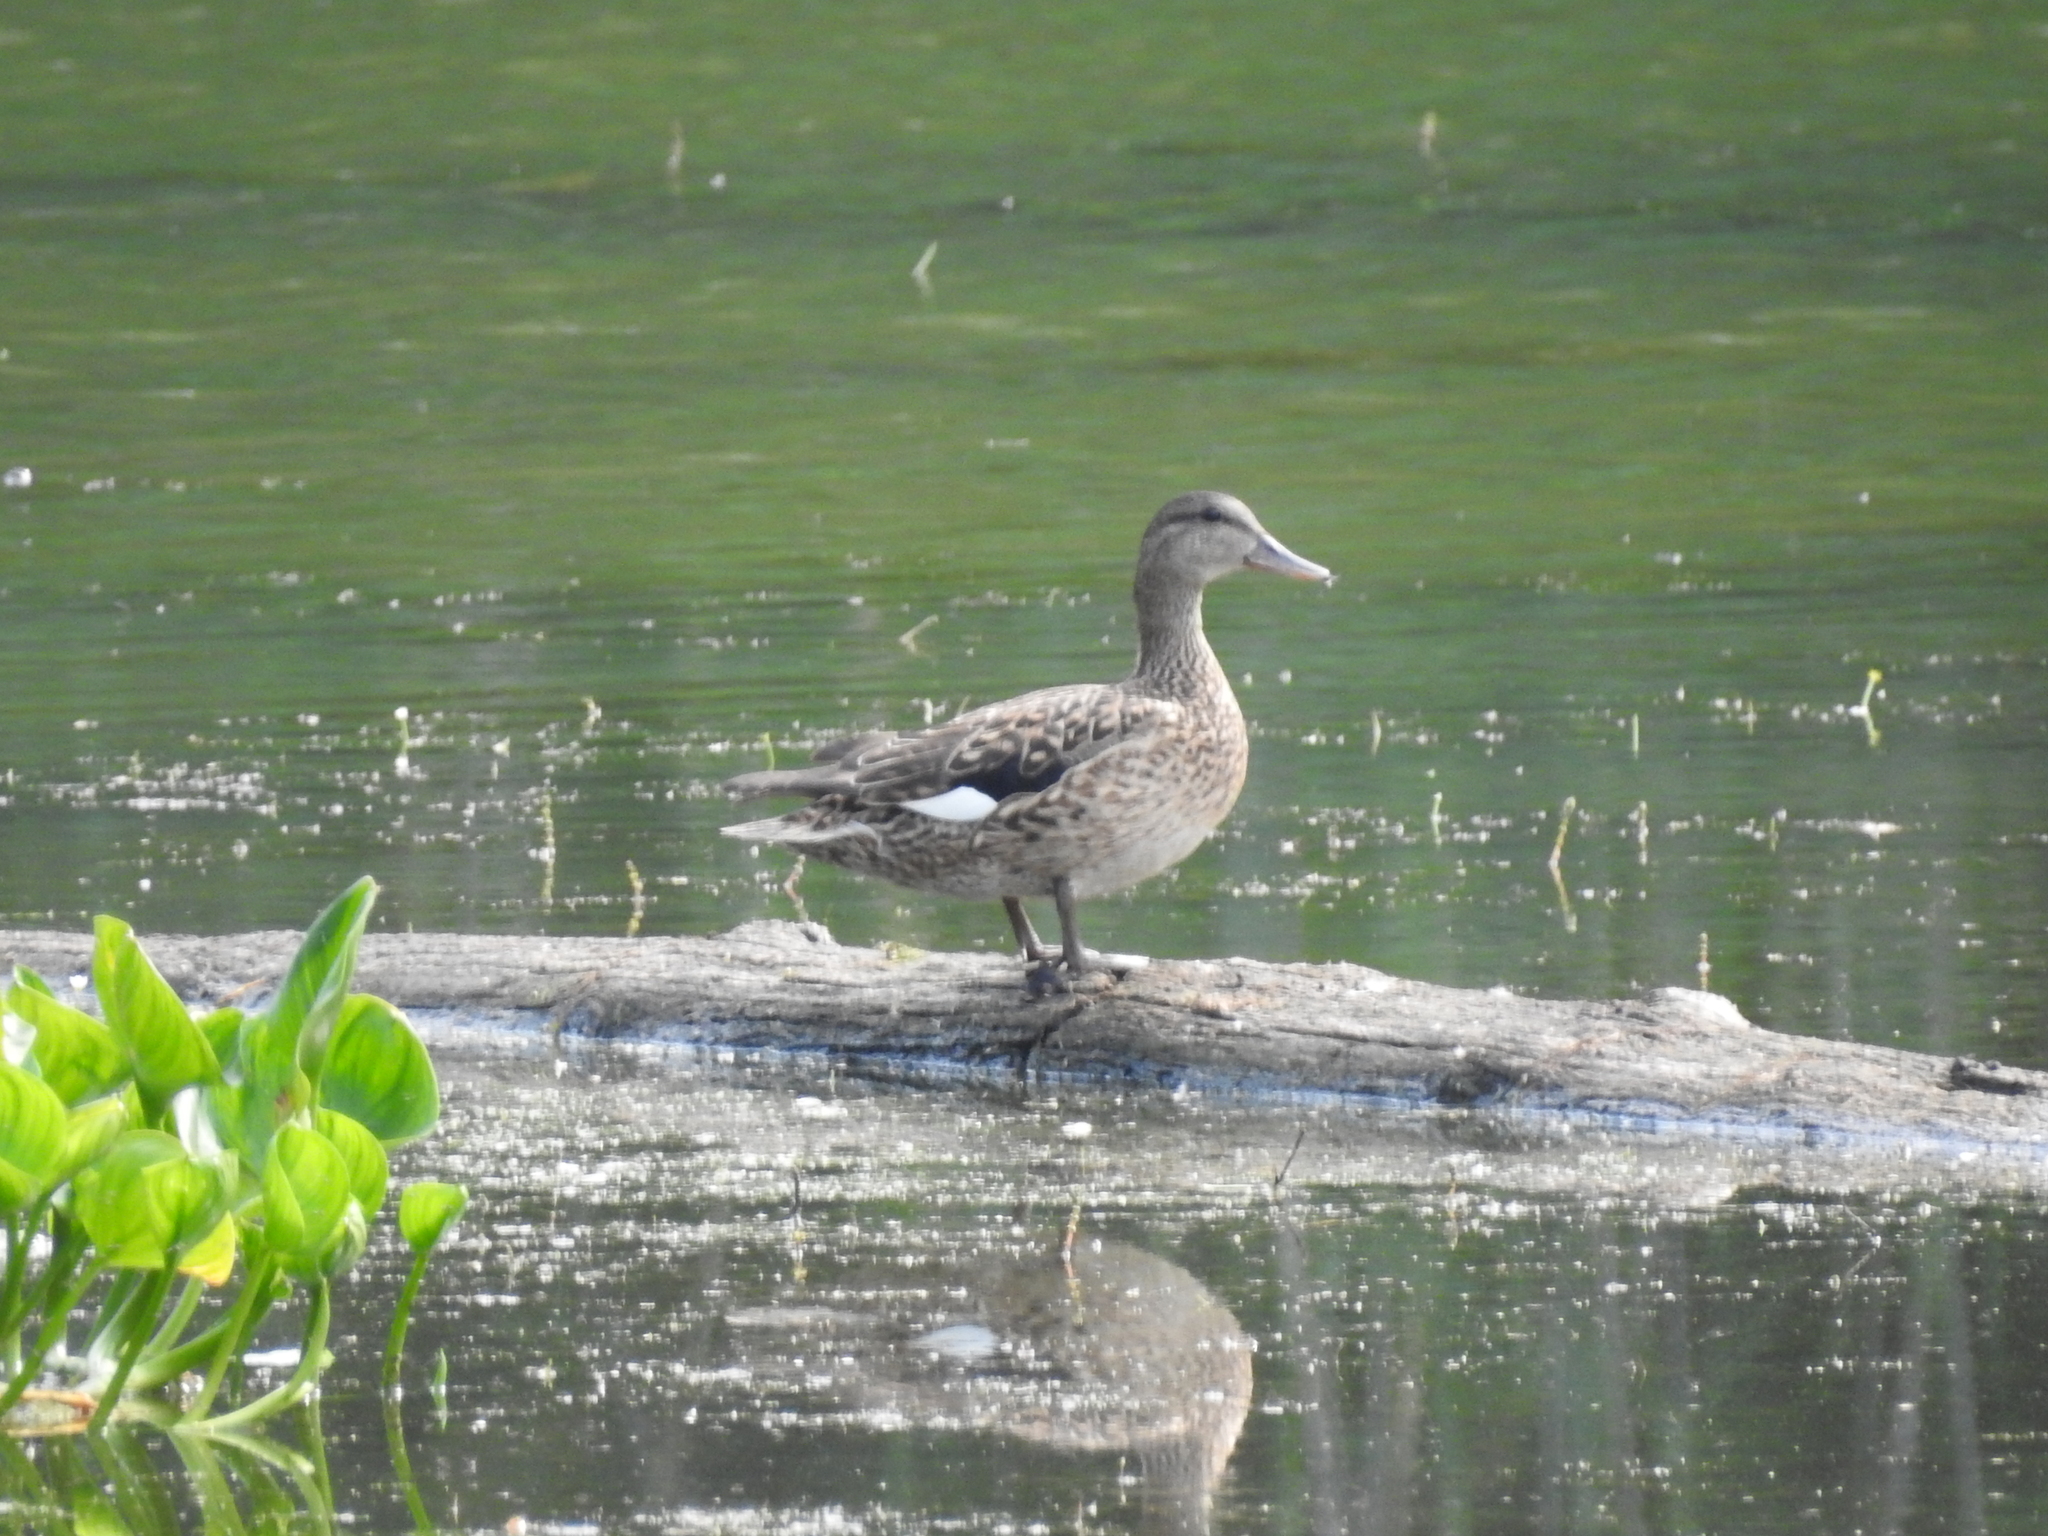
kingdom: Animalia
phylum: Chordata
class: Aves
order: Anseriformes
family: Anatidae
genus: Mareca
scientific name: Mareca strepera
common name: Gadwall
